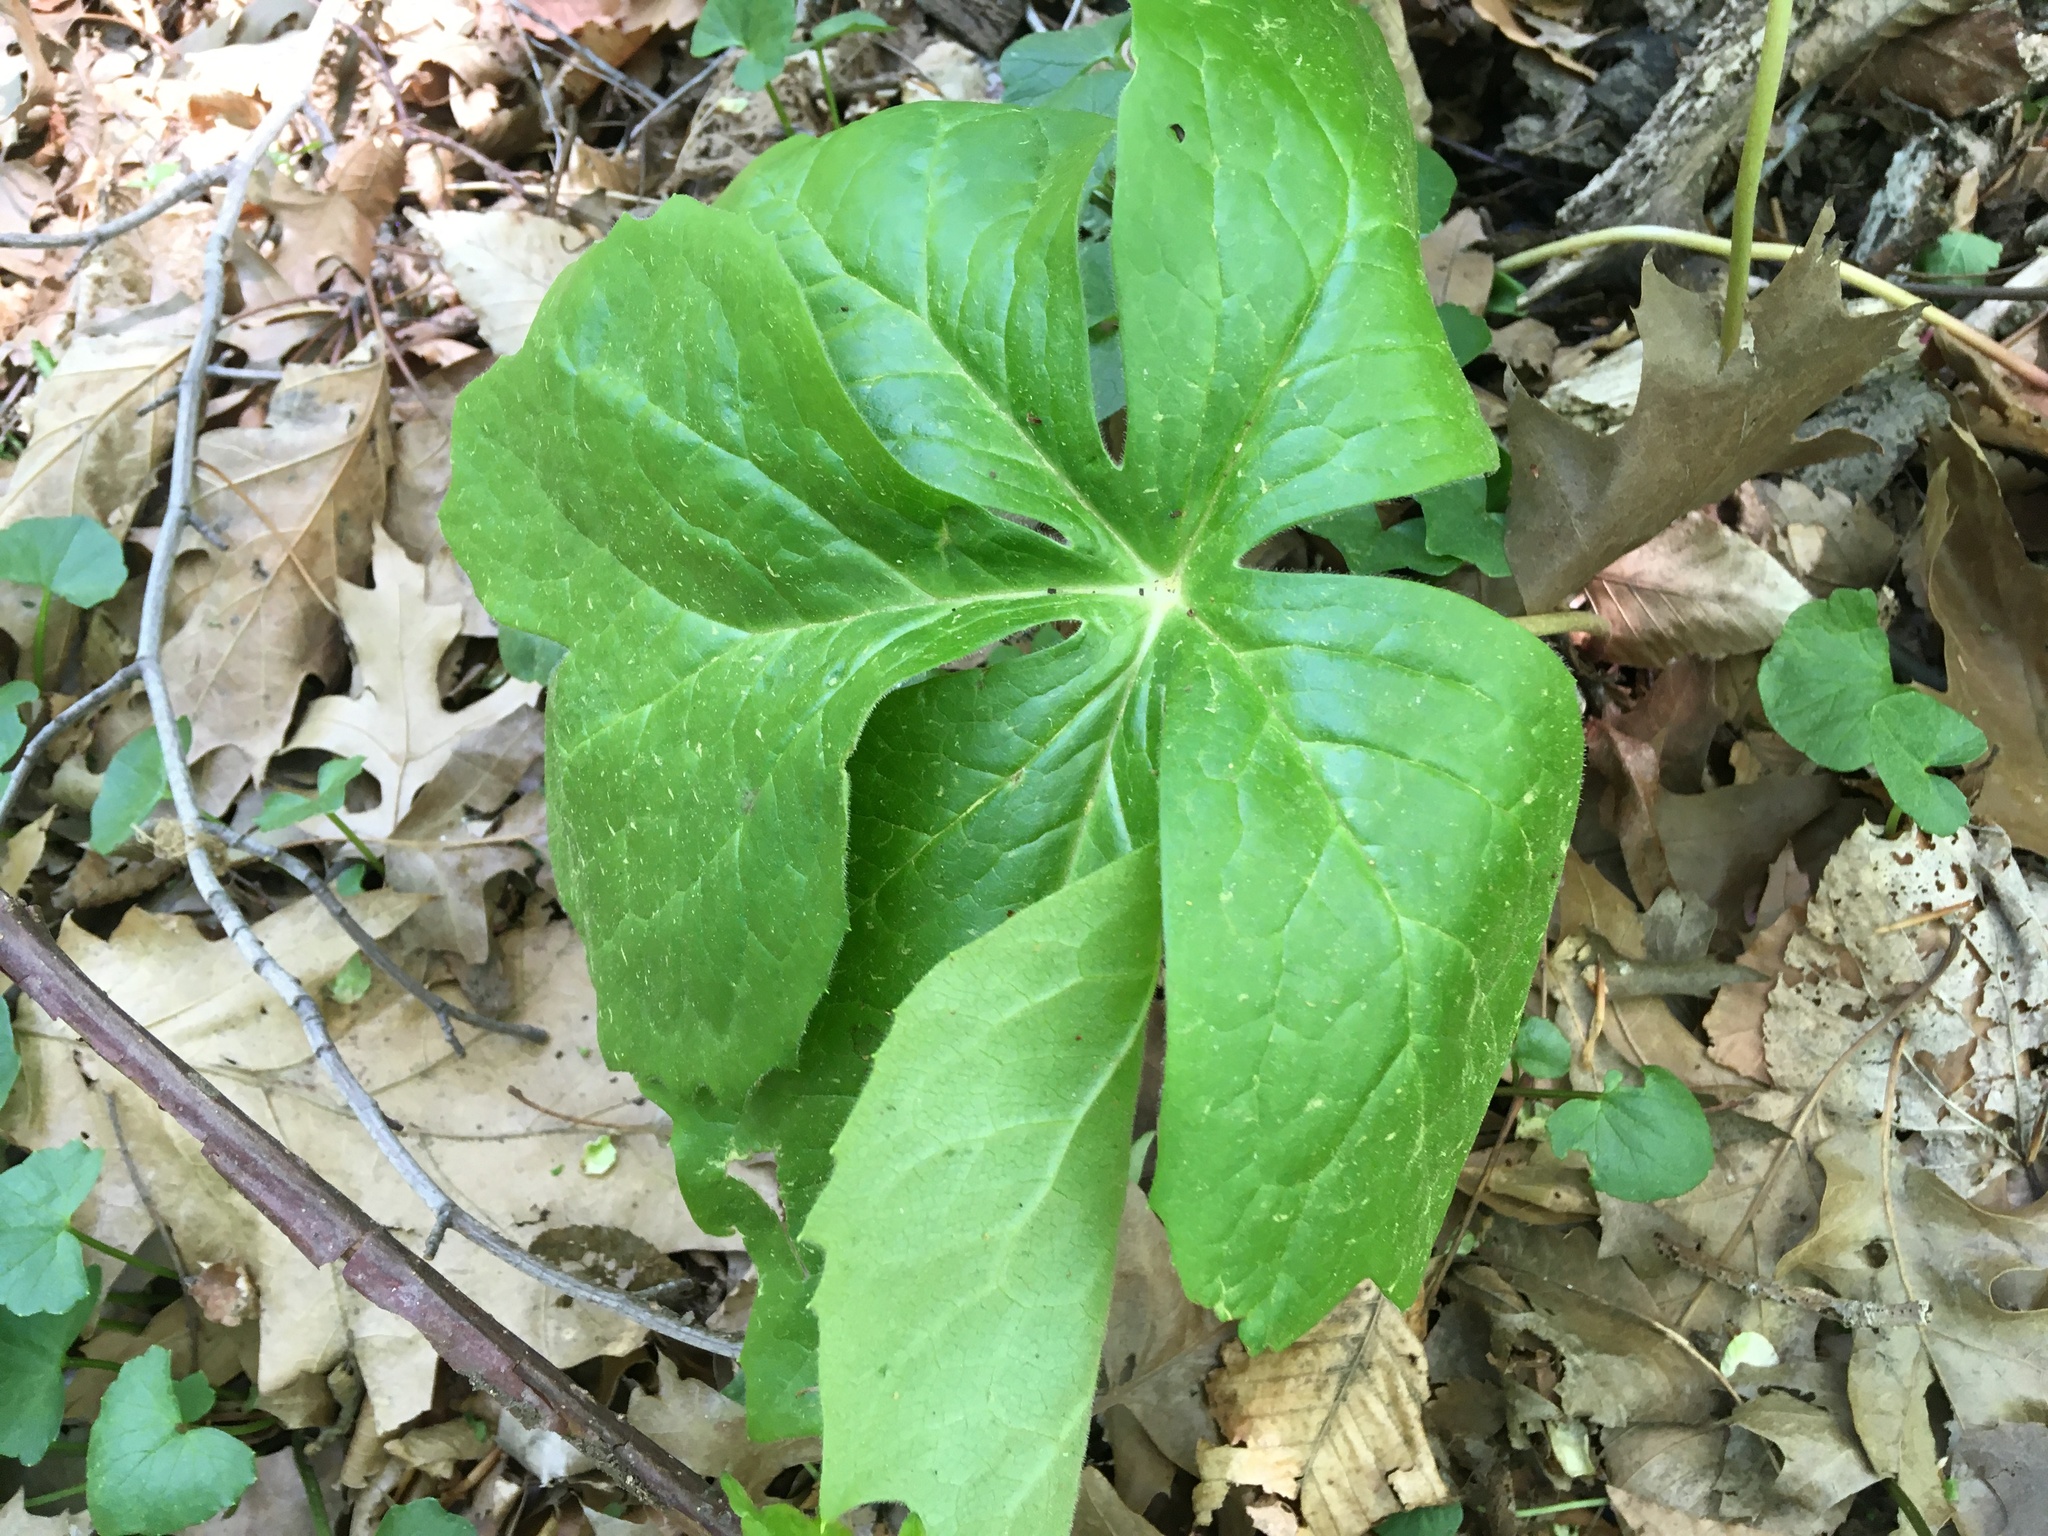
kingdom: Plantae
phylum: Tracheophyta
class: Magnoliopsida
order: Ranunculales
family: Berberidaceae
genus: Podophyllum
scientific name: Podophyllum peltatum
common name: Wild mandrake
